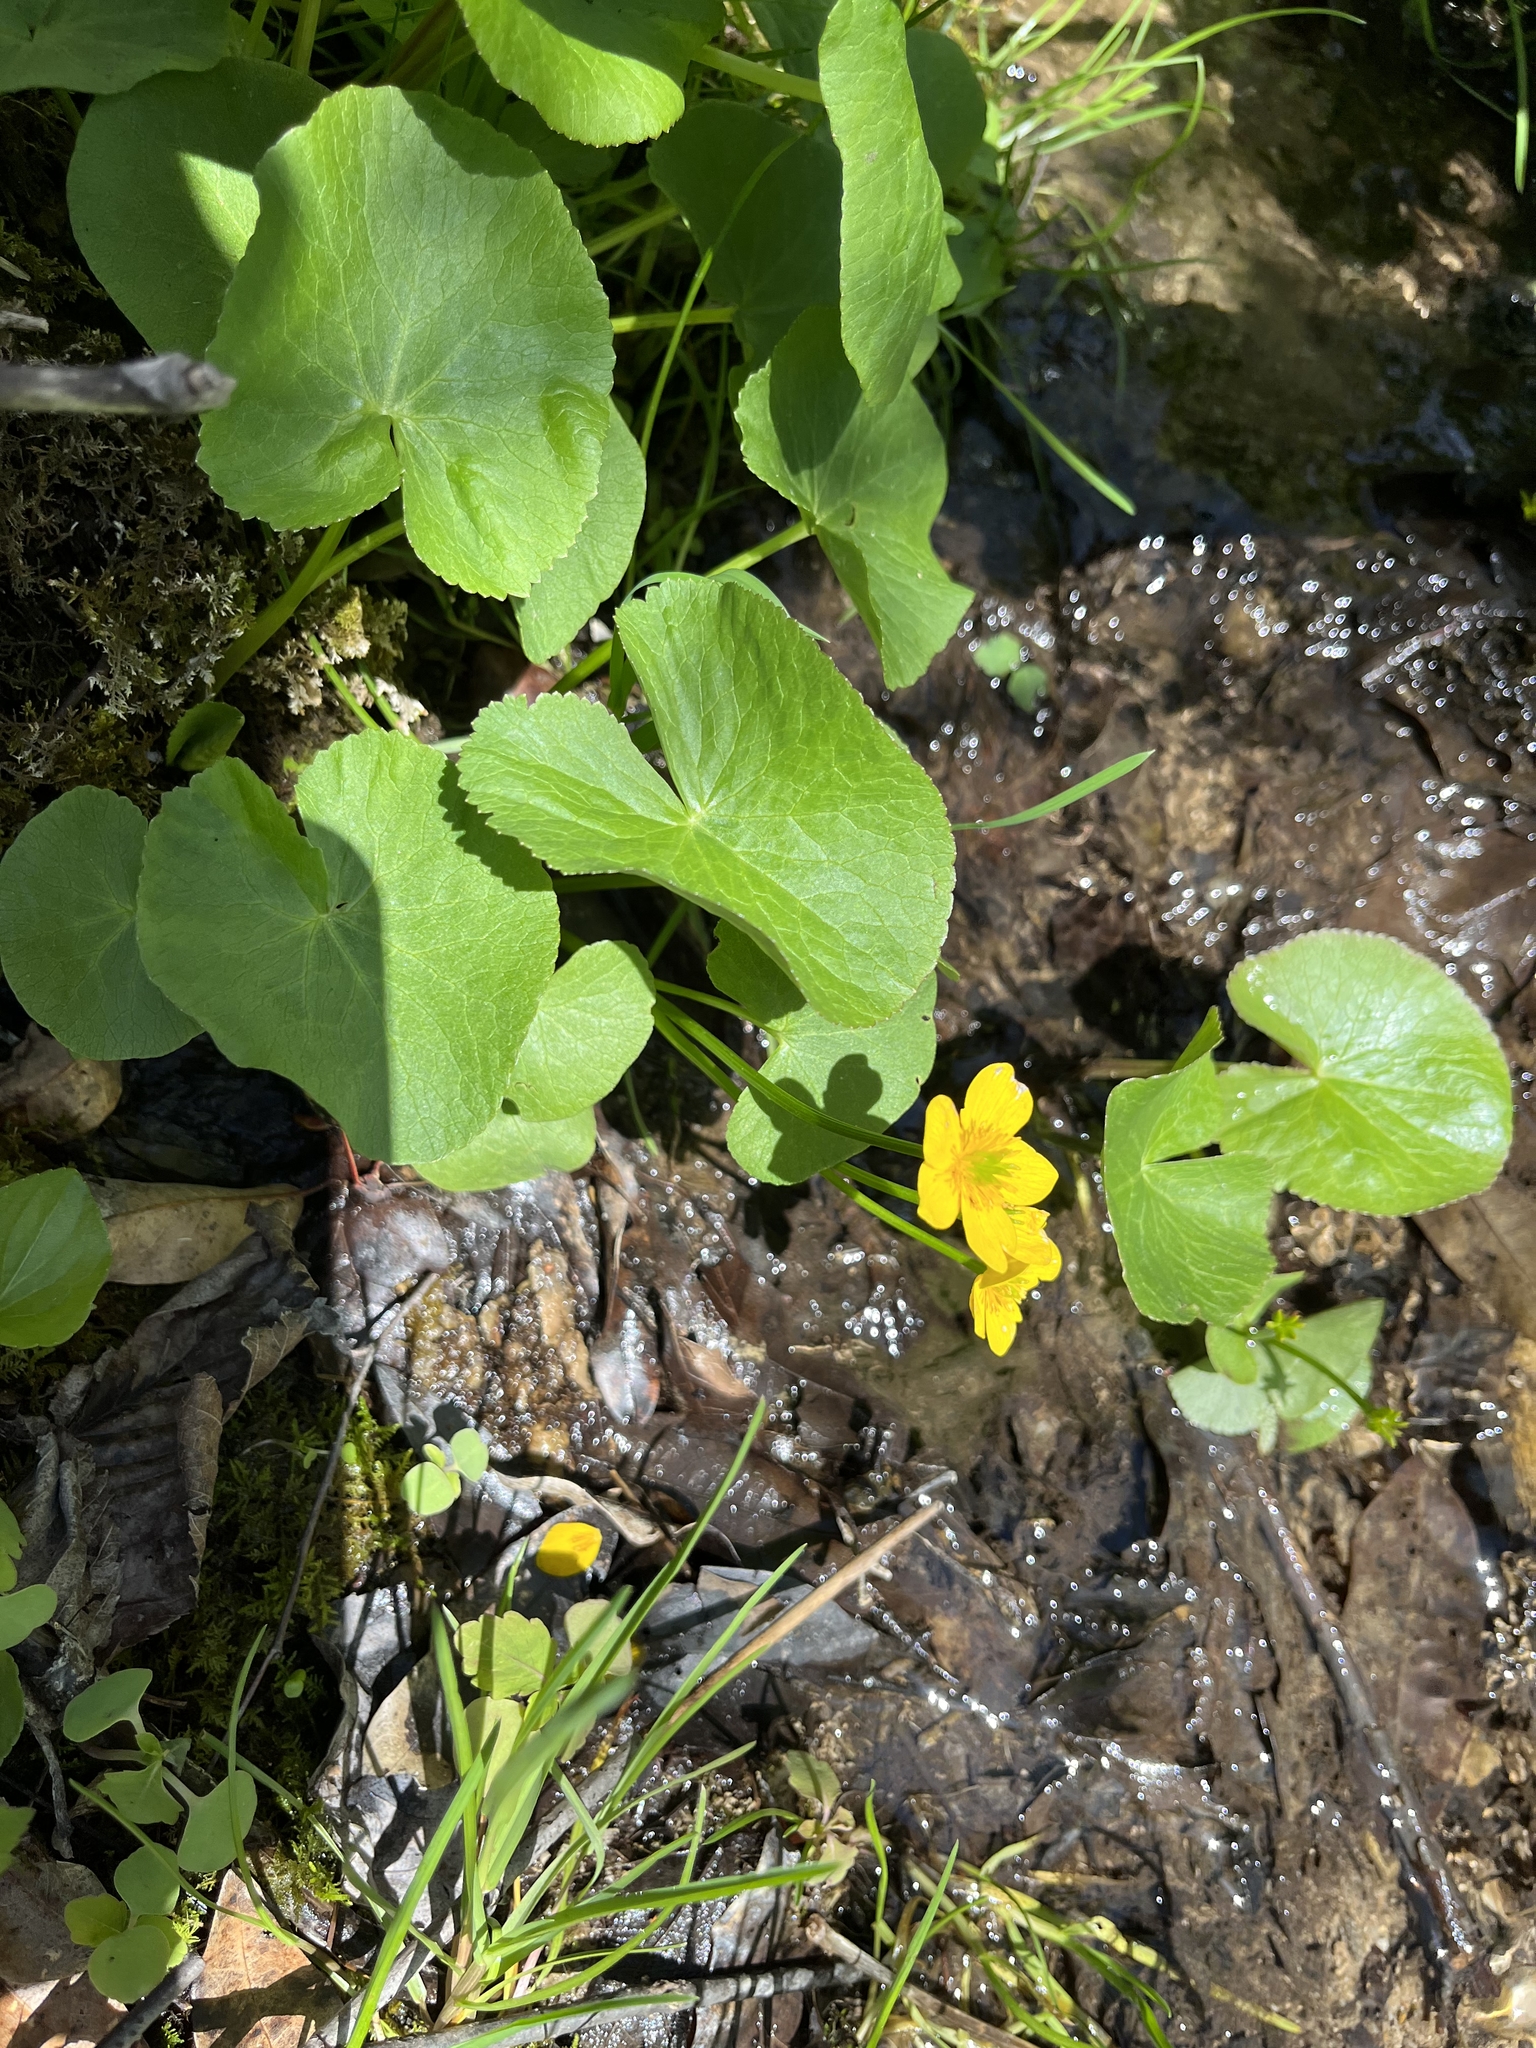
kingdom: Plantae
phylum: Tracheophyta
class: Magnoliopsida
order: Ranunculales
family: Ranunculaceae
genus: Caltha
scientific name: Caltha palustris
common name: Marsh marigold
